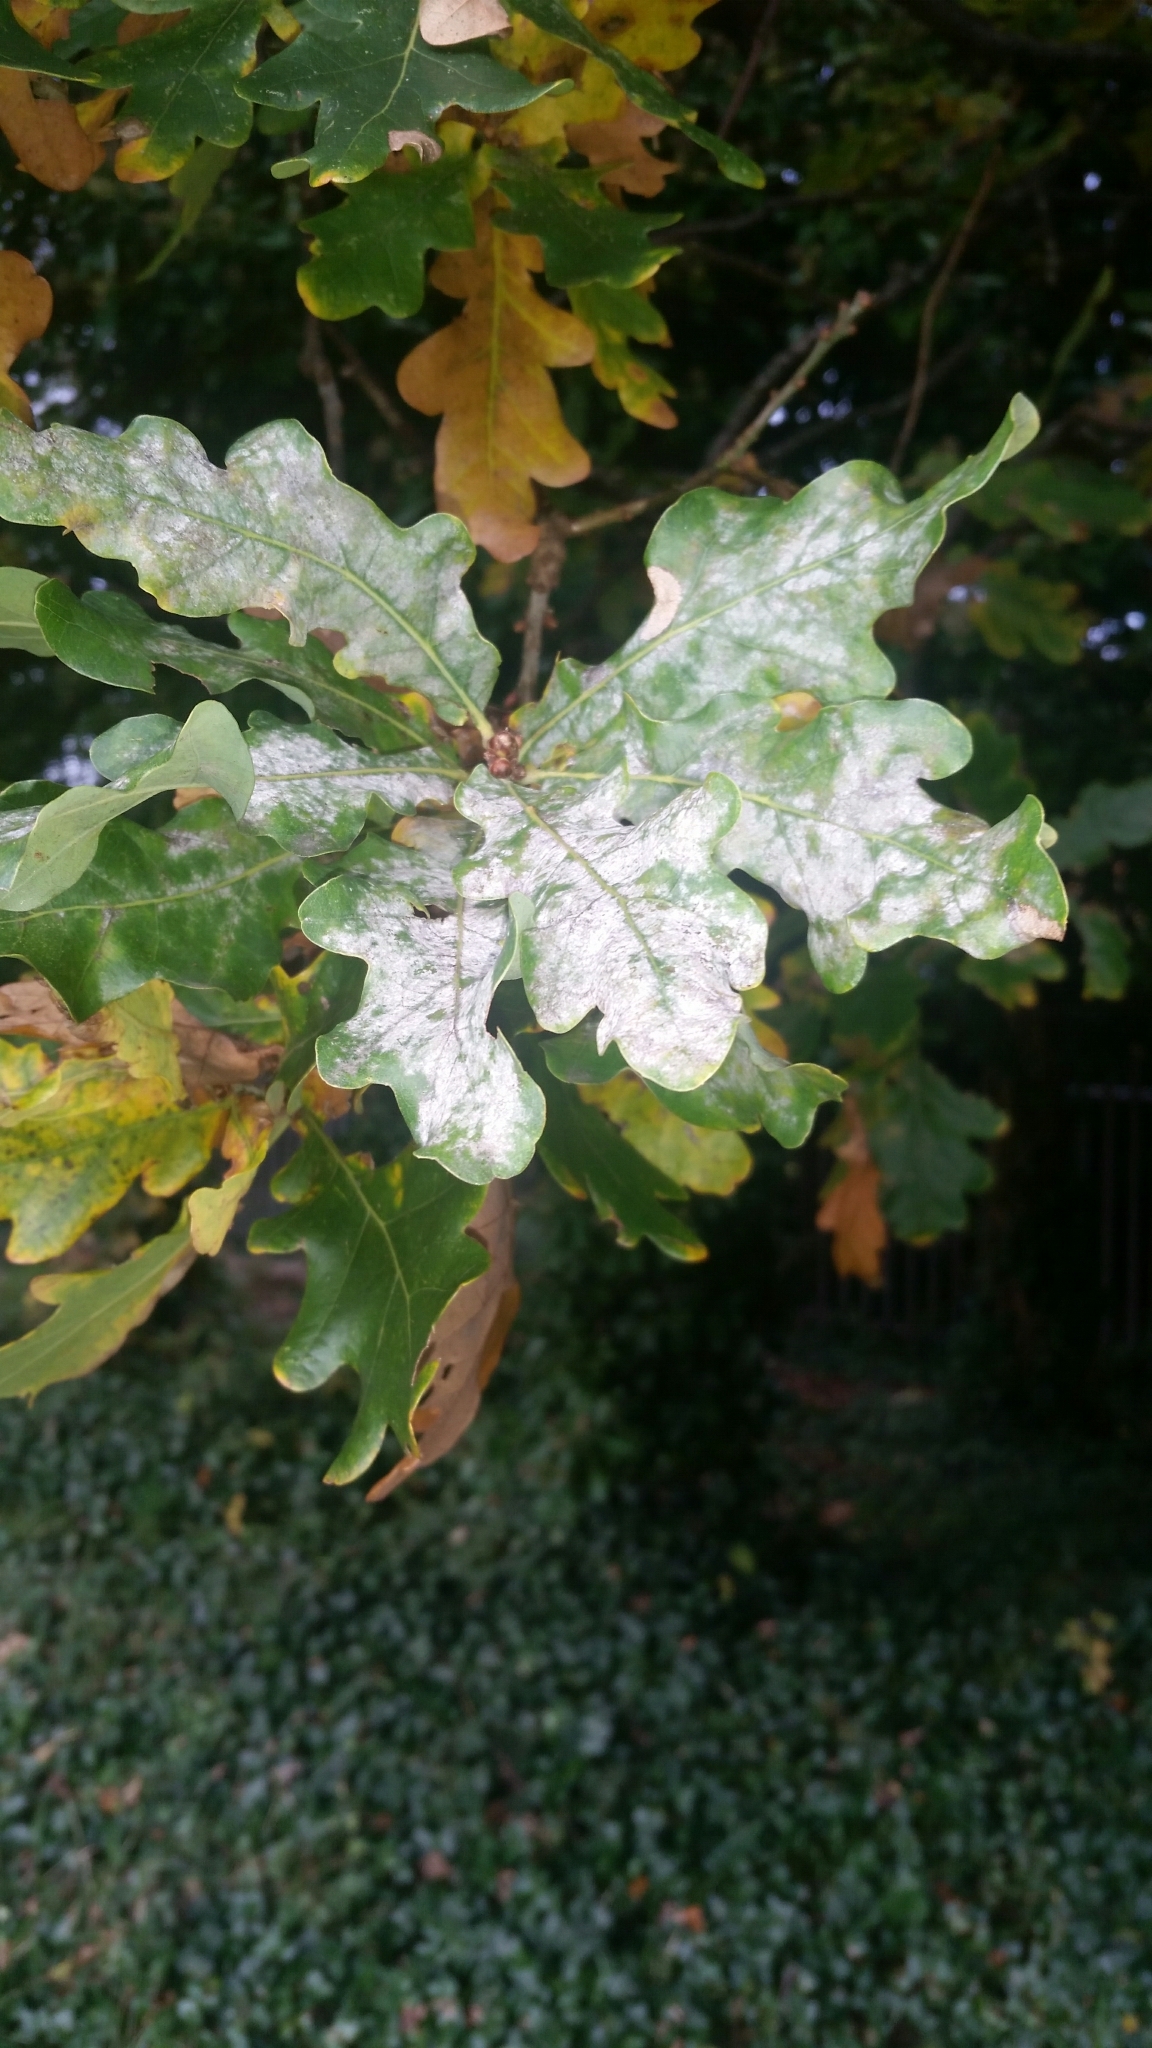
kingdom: Fungi
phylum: Ascomycota
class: Leotiomycetes
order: Helotiales
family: Erysiphaceae
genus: Erysiphe
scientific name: Erysiphe alphitoides
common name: Oak mildew
